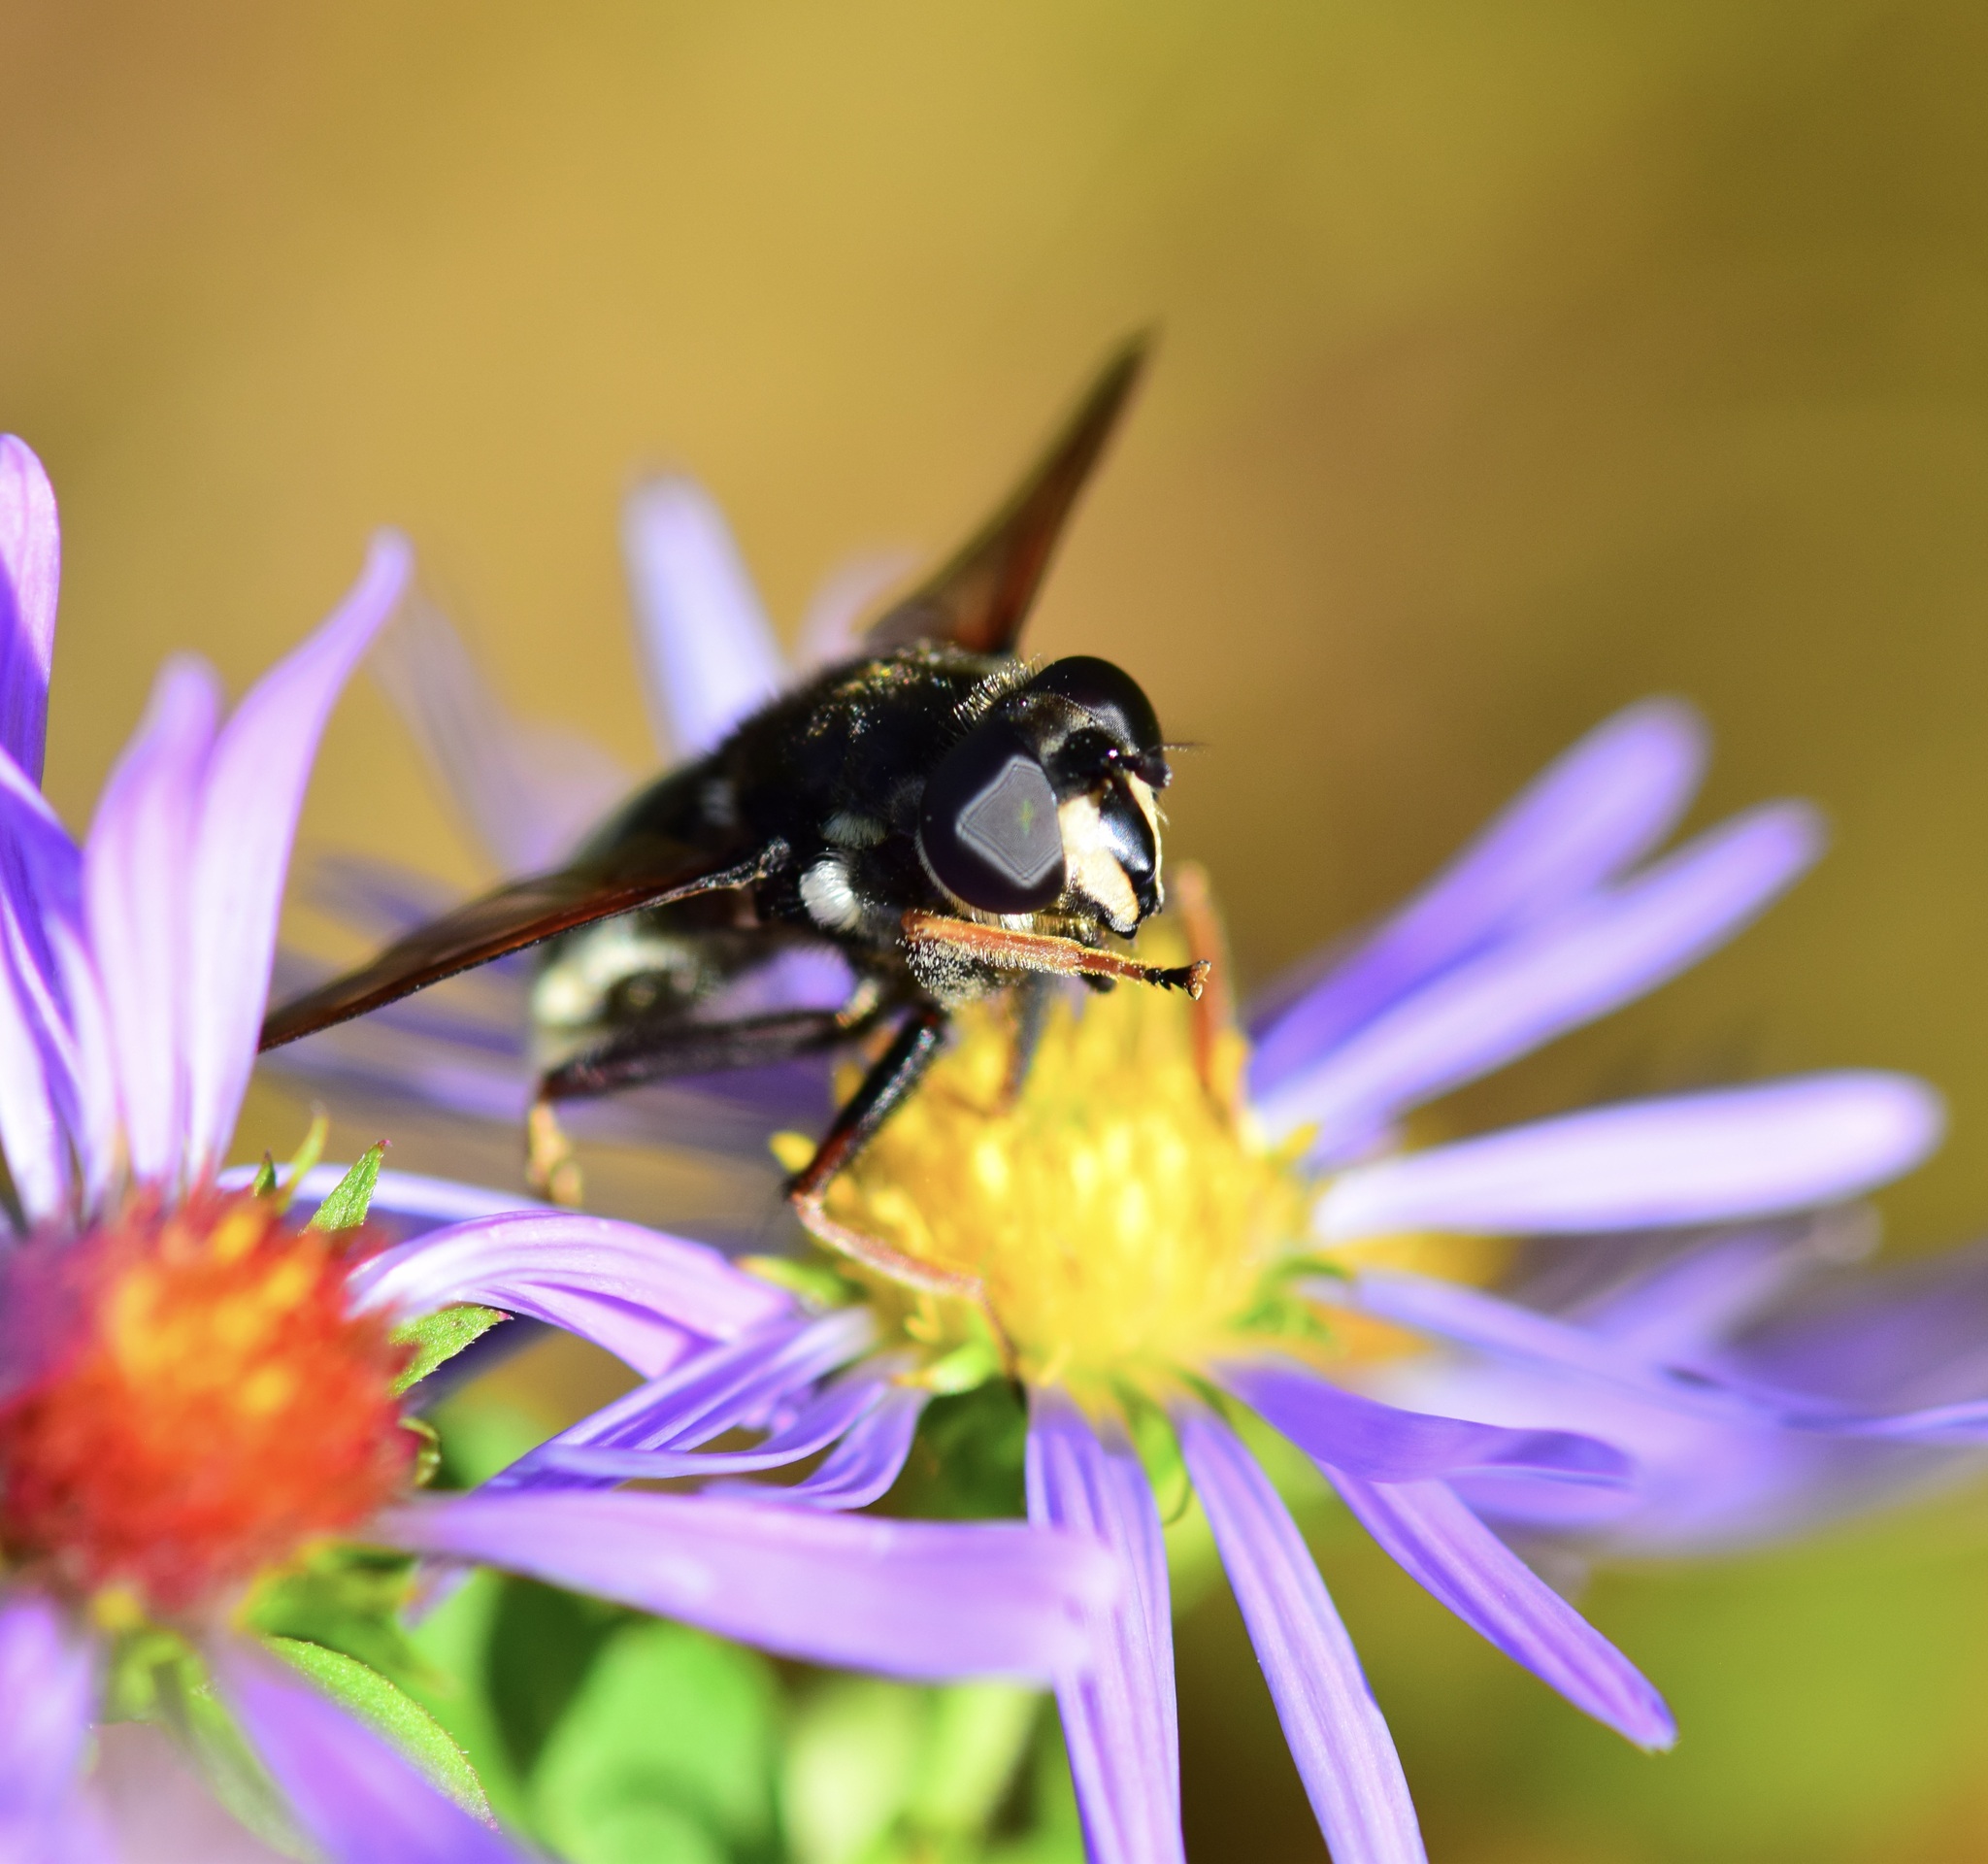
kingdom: Animalia
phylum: Arthropoda
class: Insecta
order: Diptera
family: Syrphidae
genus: Sericomyia
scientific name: Sericomyia militaris
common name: Narrow-banded pond fly
